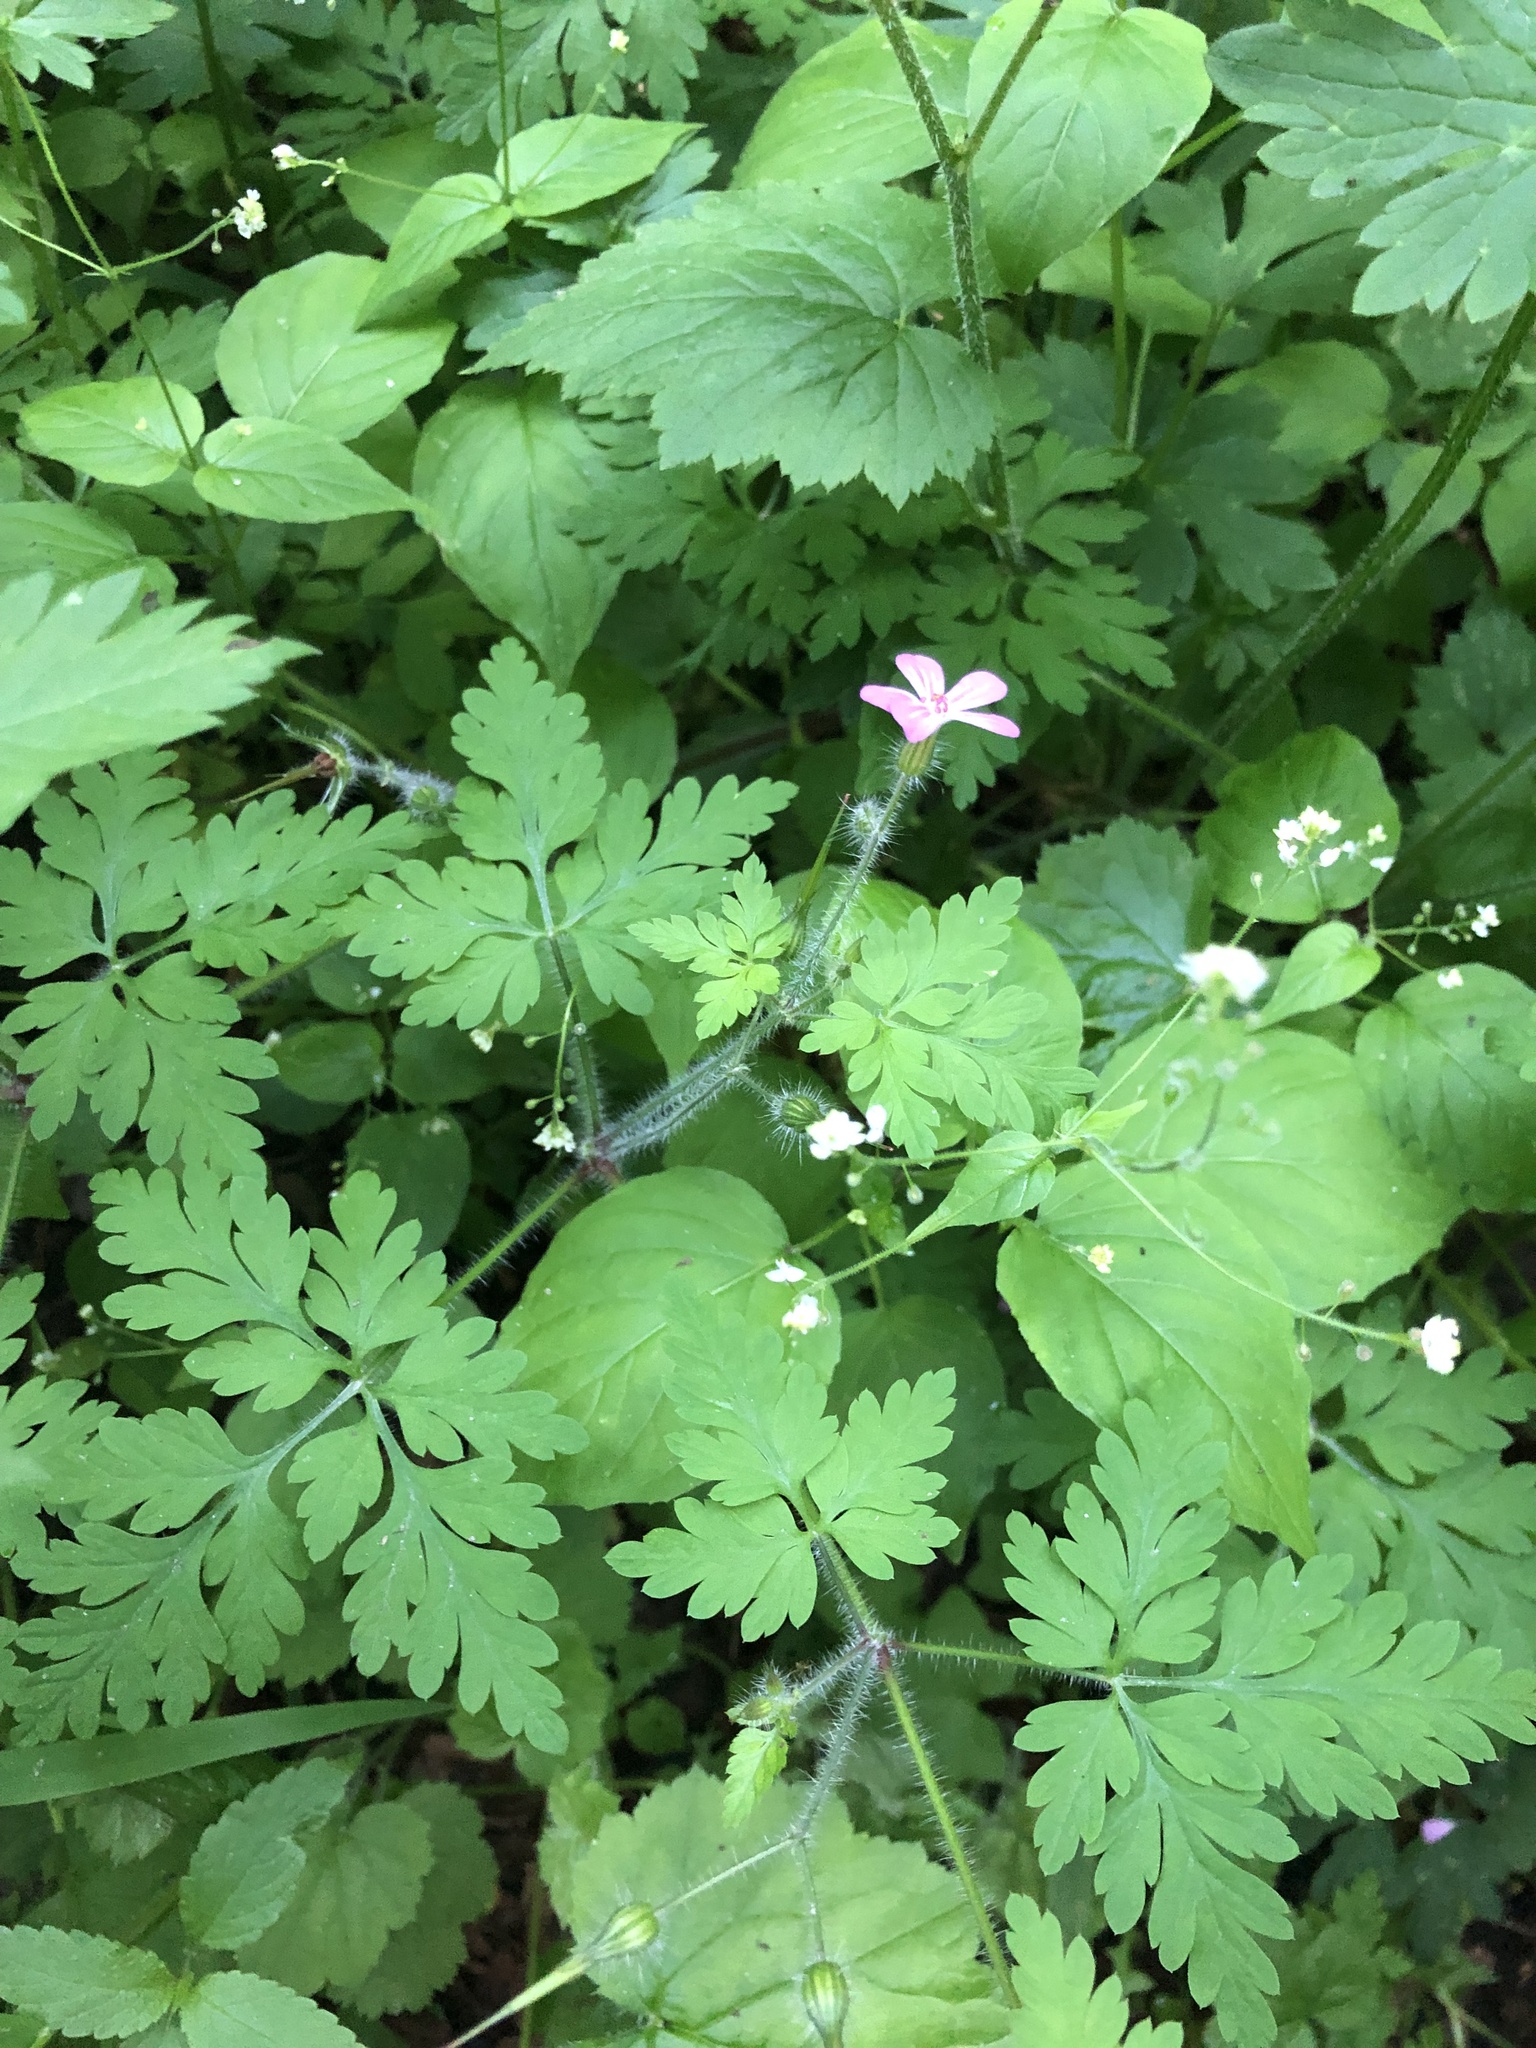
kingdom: Plantae
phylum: Tracheophyta
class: Magnoliopsida
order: Geraniales
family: Geraniaceae
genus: Geranium
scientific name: Geranium robertianum
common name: Herb-robert
